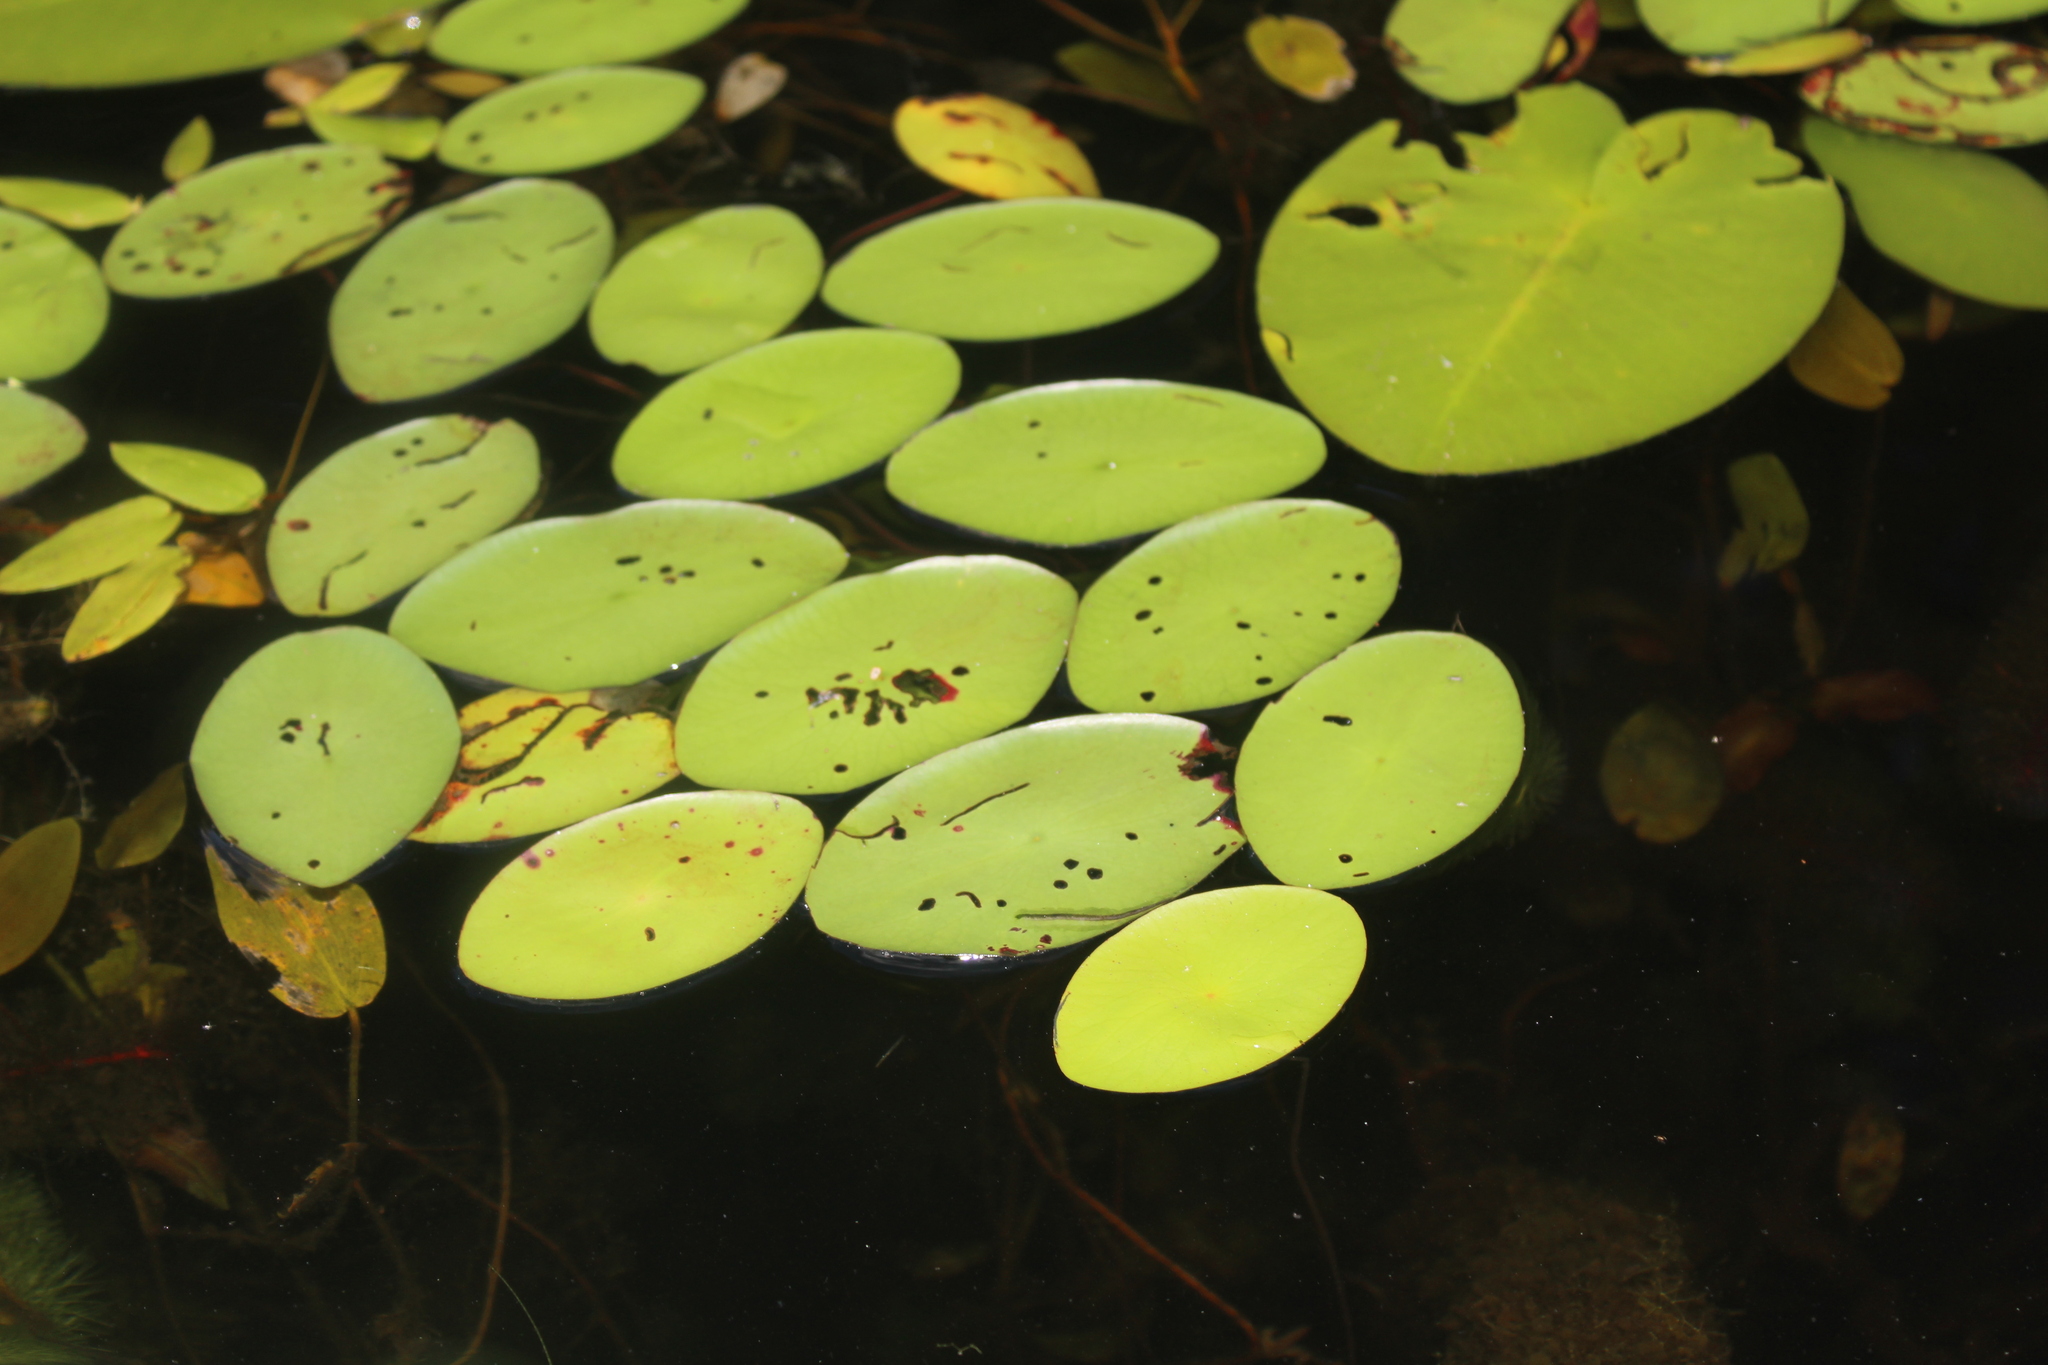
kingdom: Plantae
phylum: Tracheophyta
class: Magnoliopsida
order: Nymphaeales
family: Cabombaceae
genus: Brasenia
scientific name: Brasenia schreberi
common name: Water-shield
